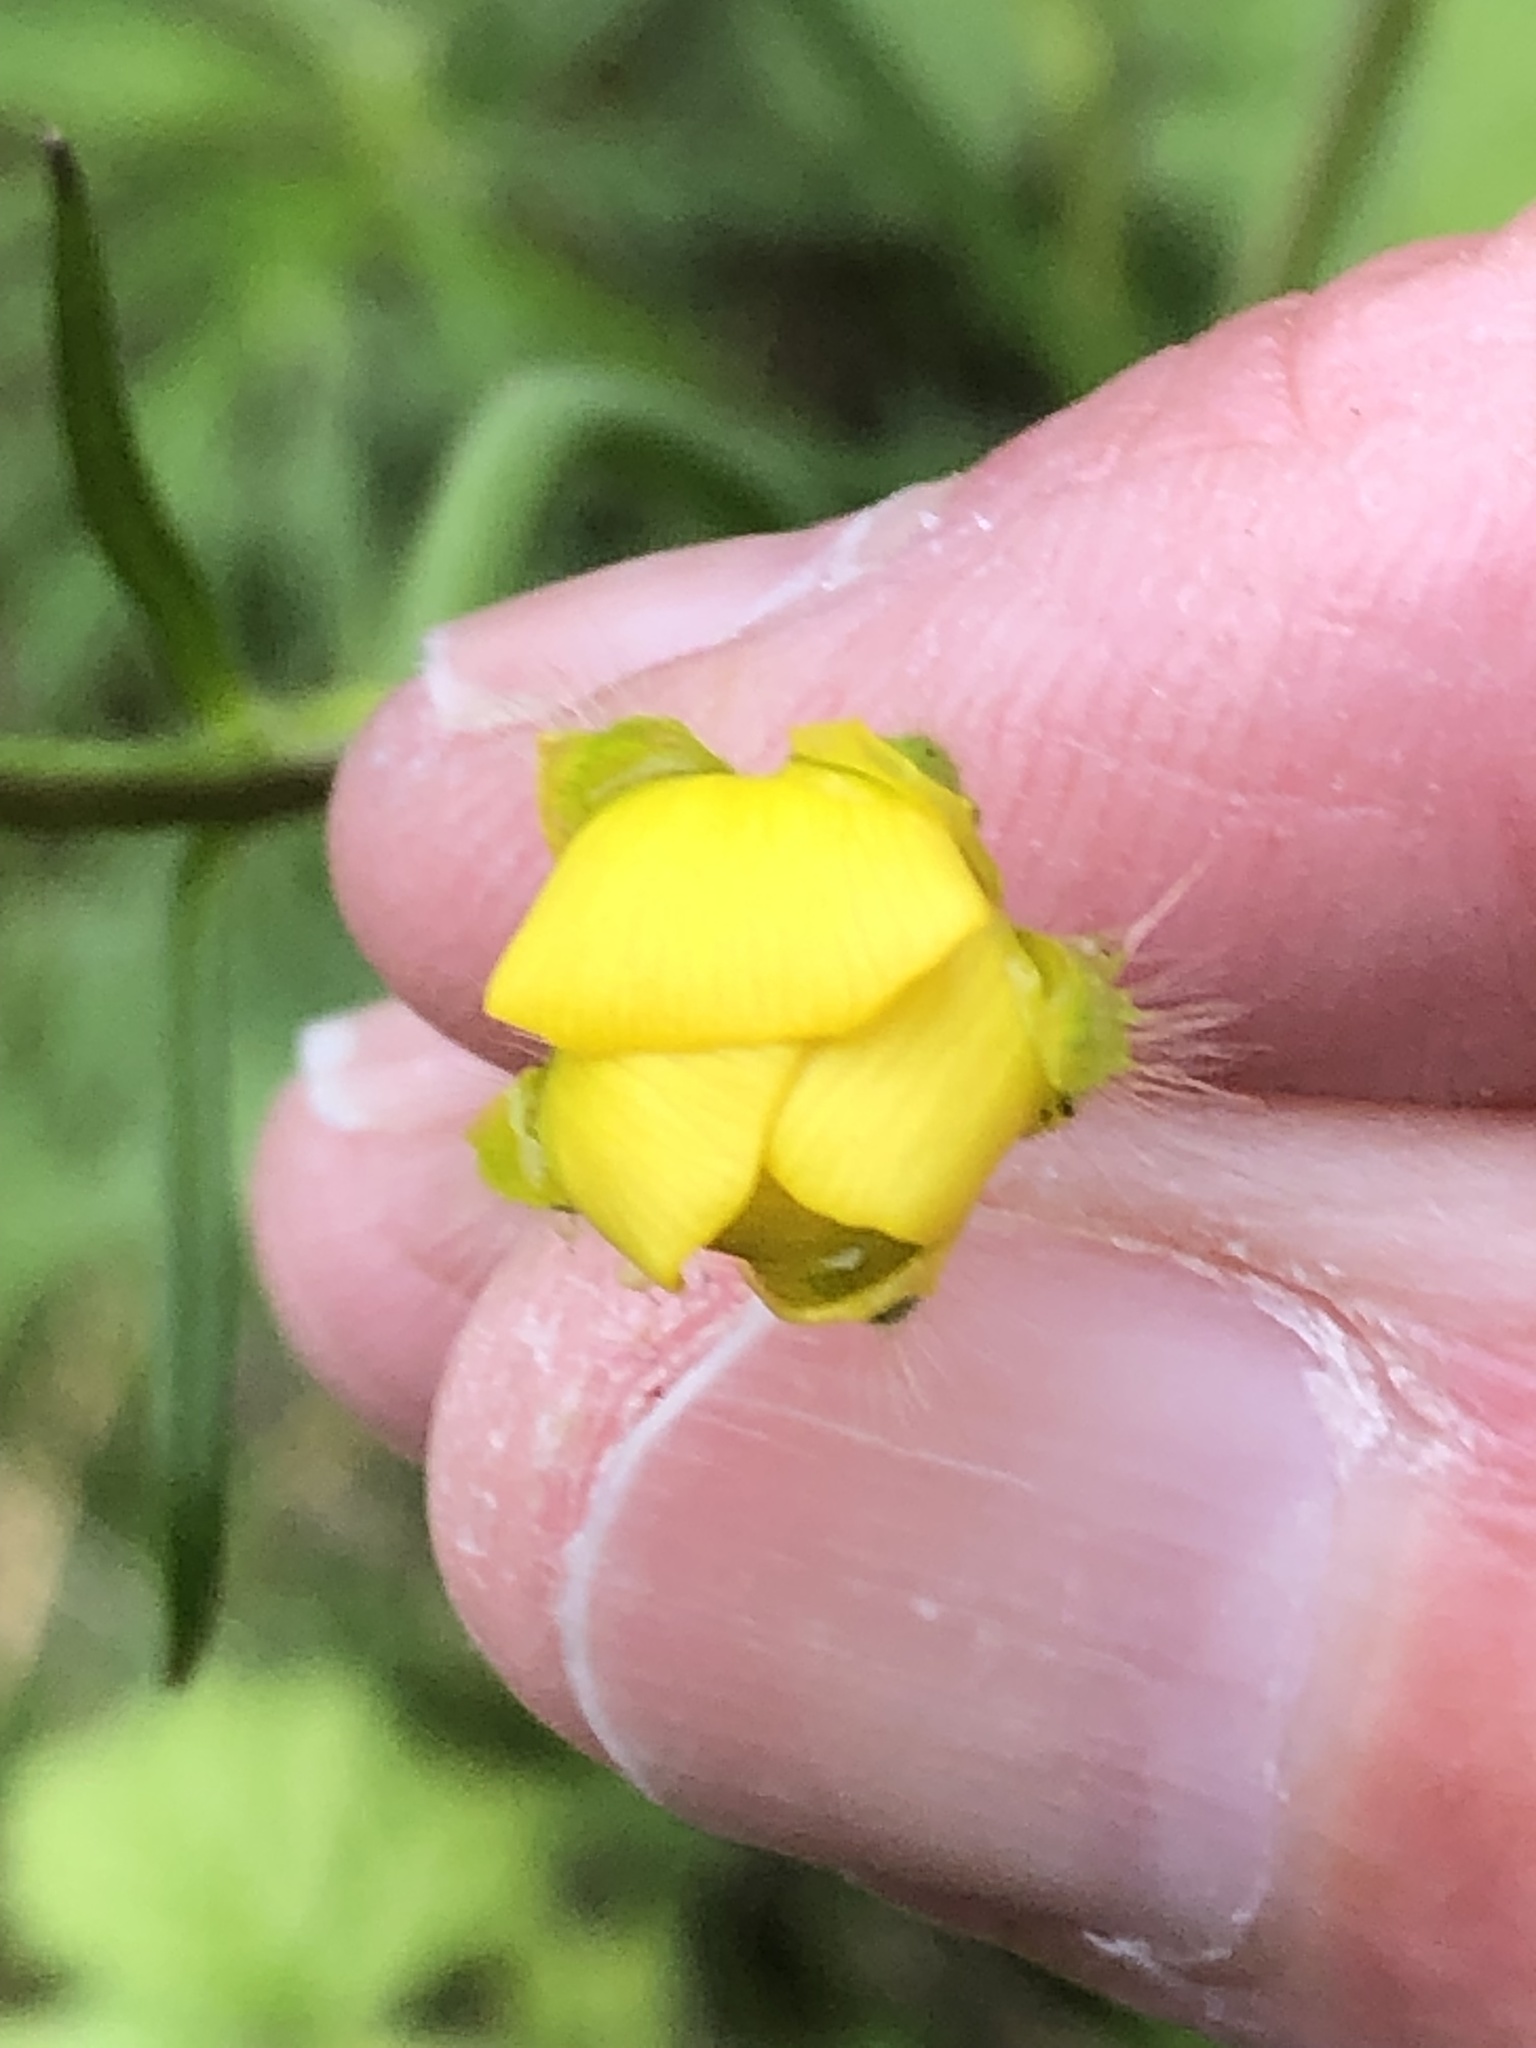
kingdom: Plantae
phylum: Tracheophyta
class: Magnoliopsida
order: Ranunculales
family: Ranunculaceae
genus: Ranunculus
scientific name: Ranunculus acris
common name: Meadow buttercup
